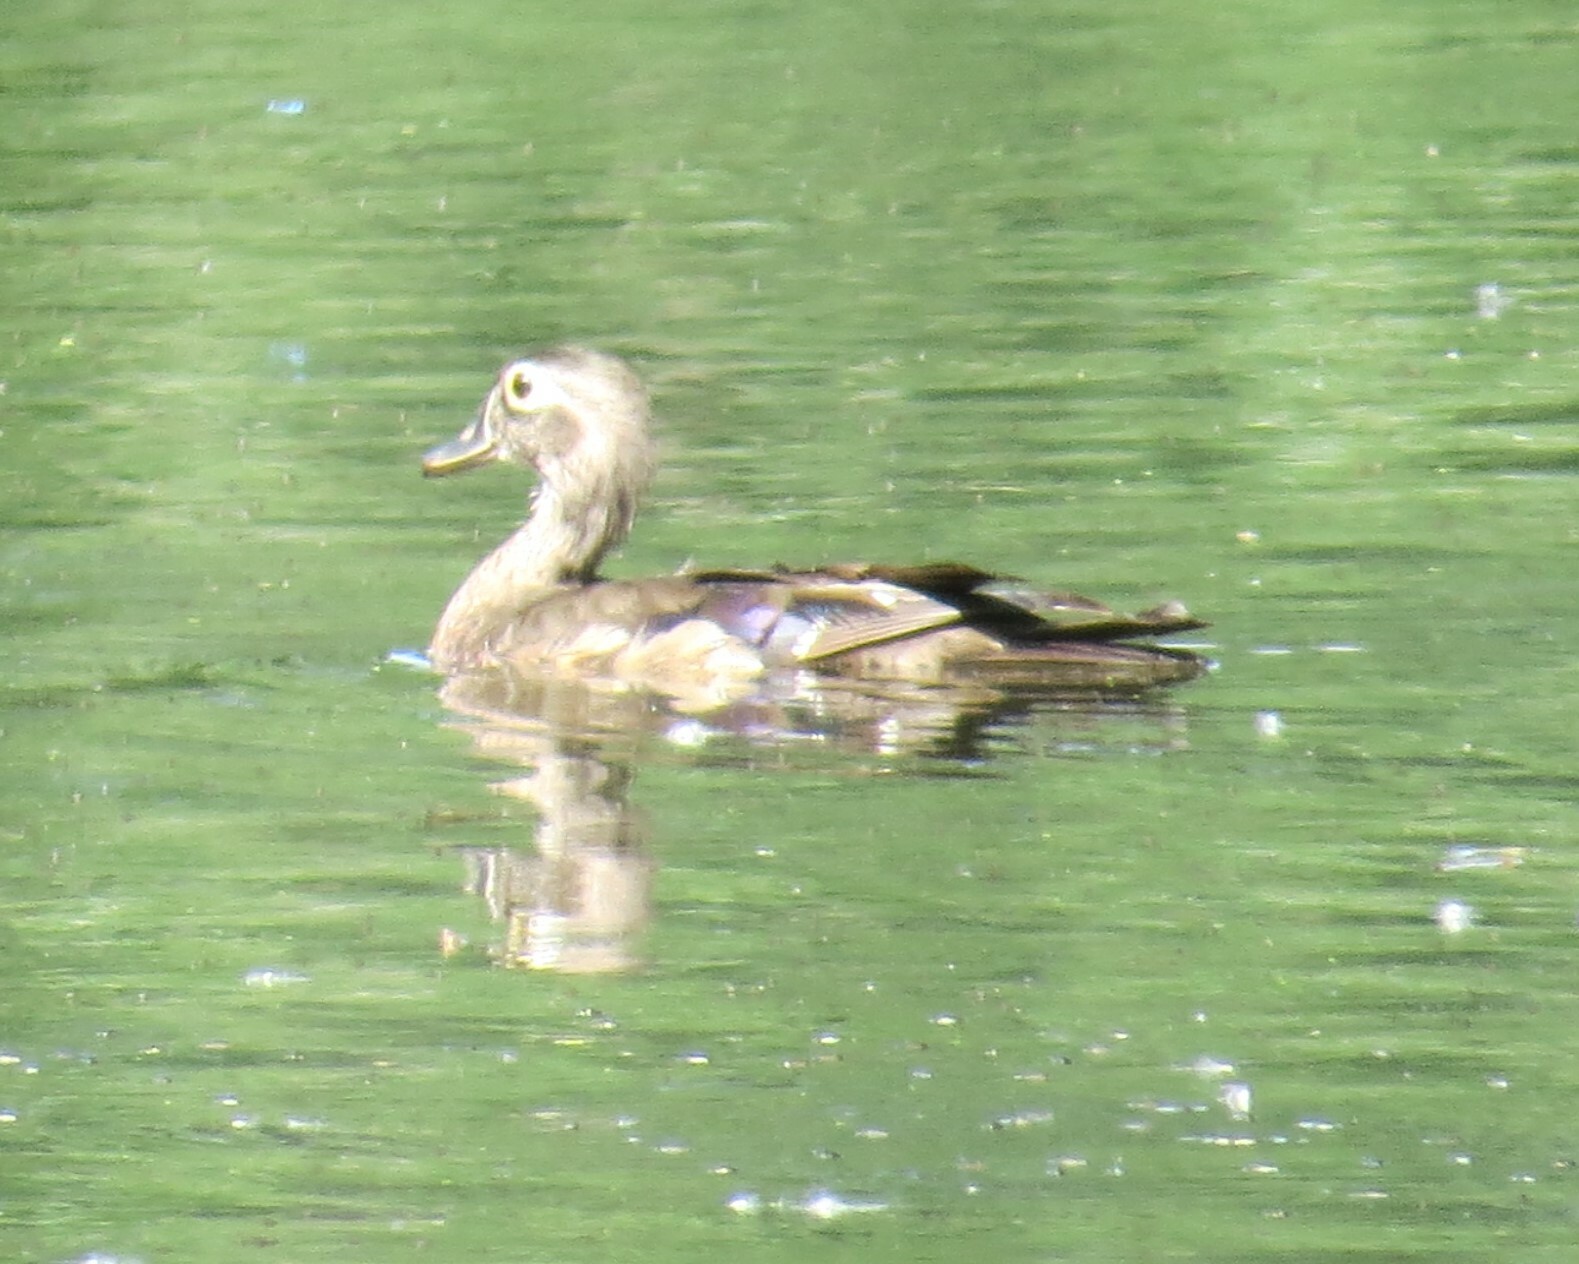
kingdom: Animalia
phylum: Chordata
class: Aves
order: Anseriformes
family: Anatidae
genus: Aix
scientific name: Aix sponsa
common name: Wood duck
